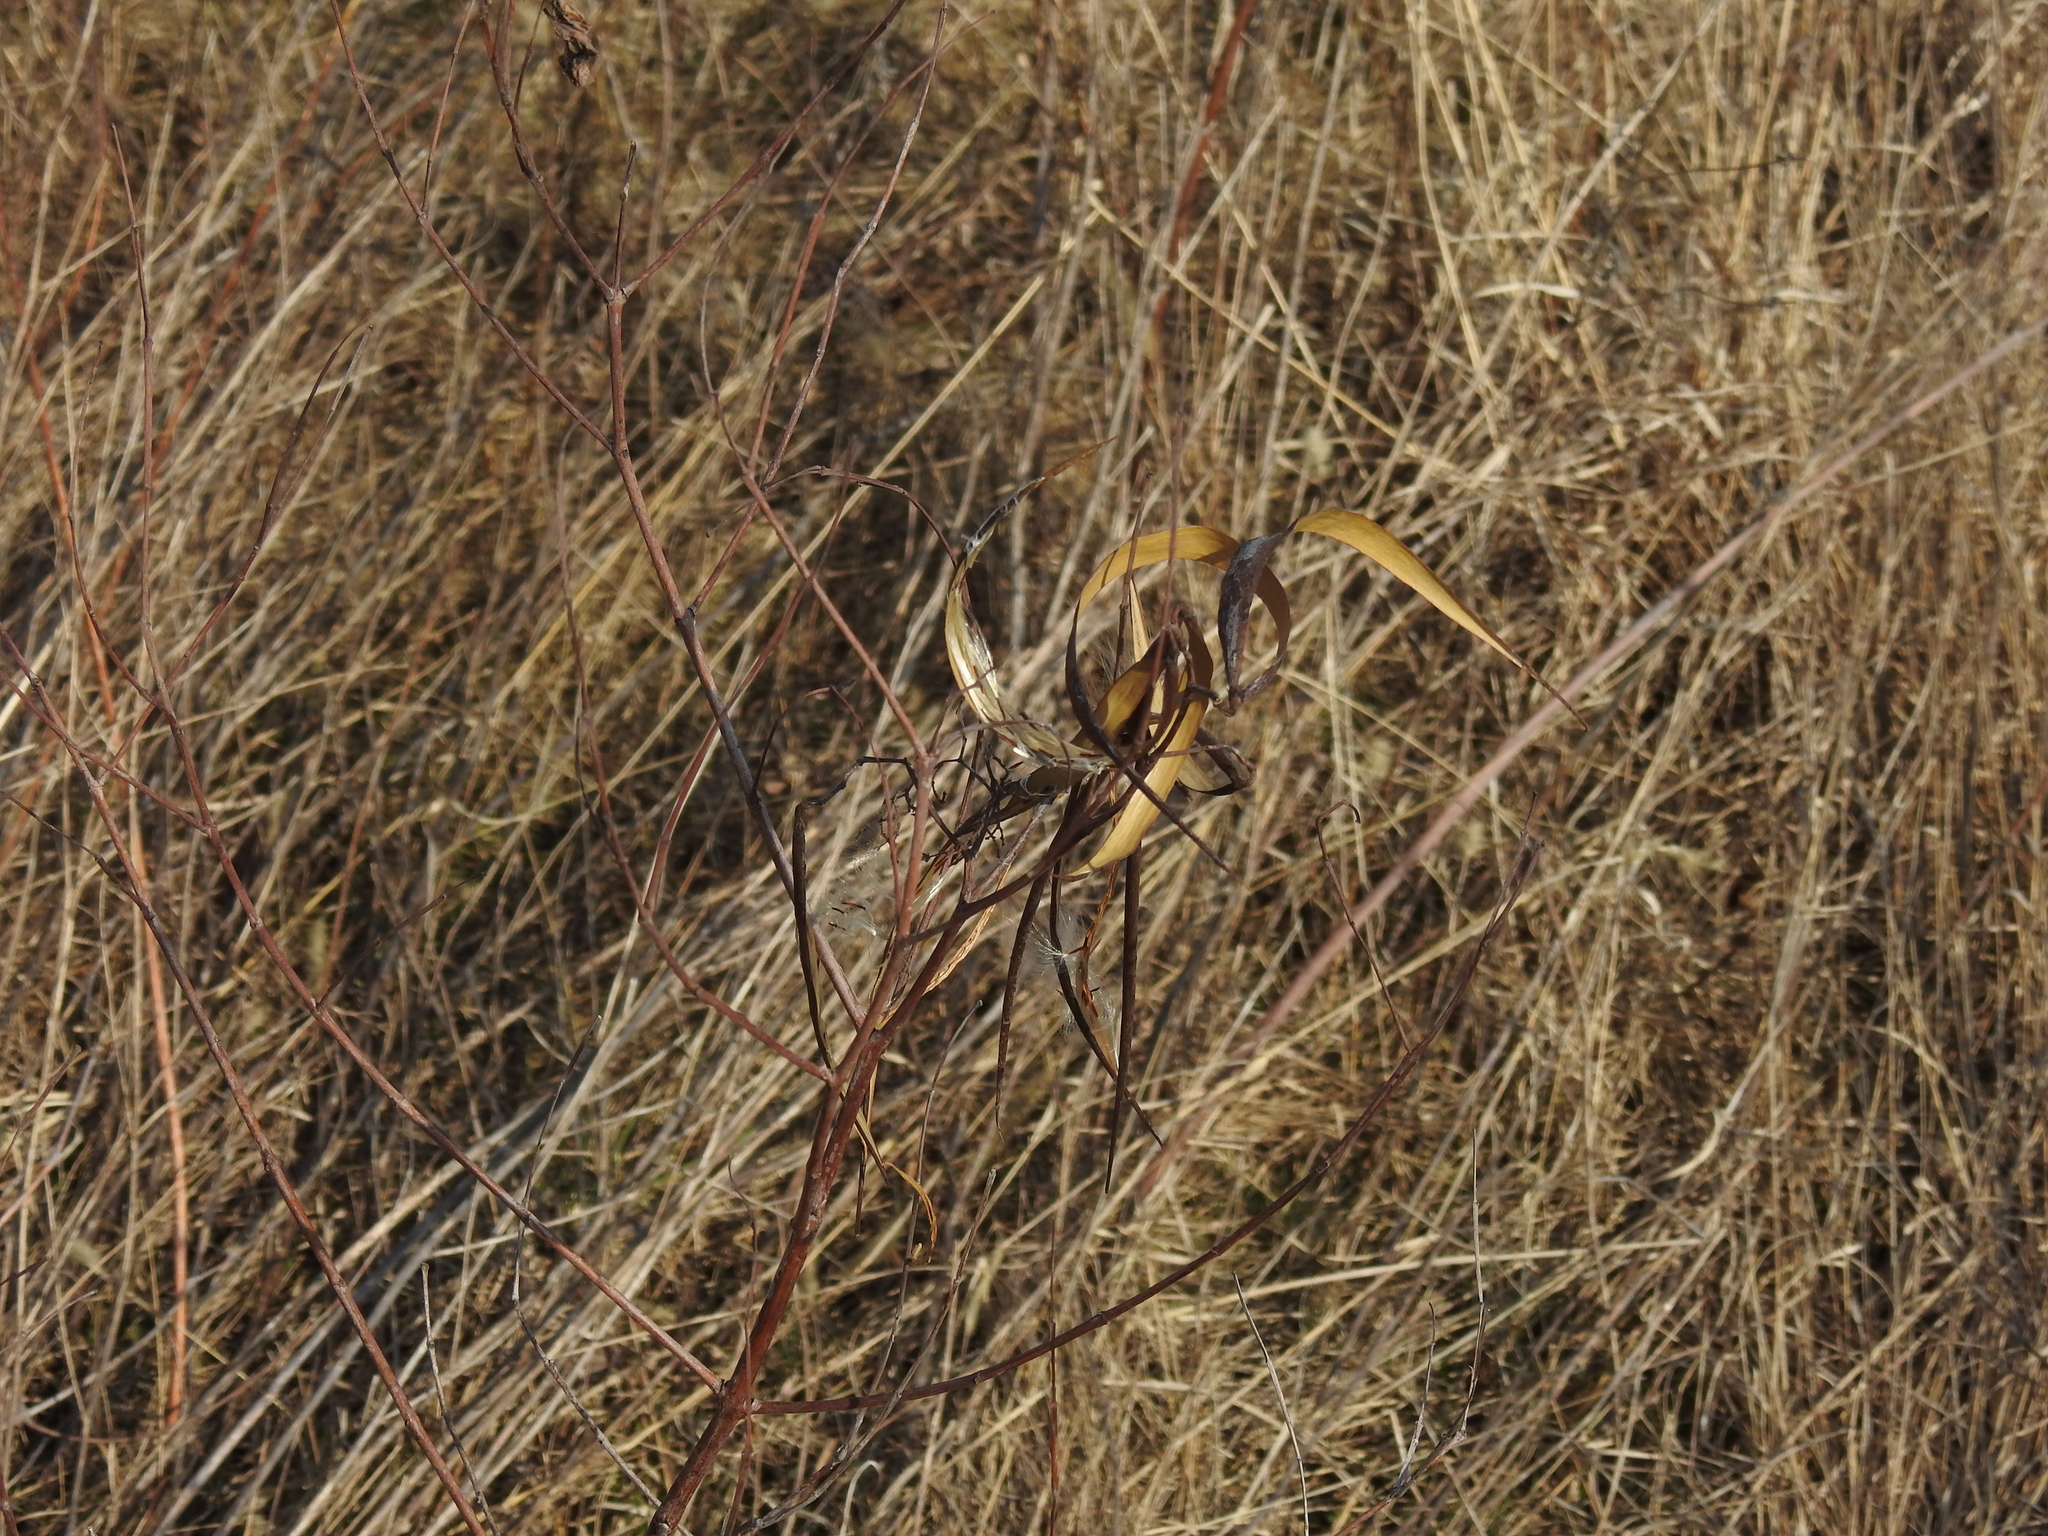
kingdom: Plantae
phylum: Tracheophyta
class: Magnoliopsida
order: Gentianales
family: Apocynaceae
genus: Apocynum
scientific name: Apocynum cannabinum
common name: Hemp dogbane
